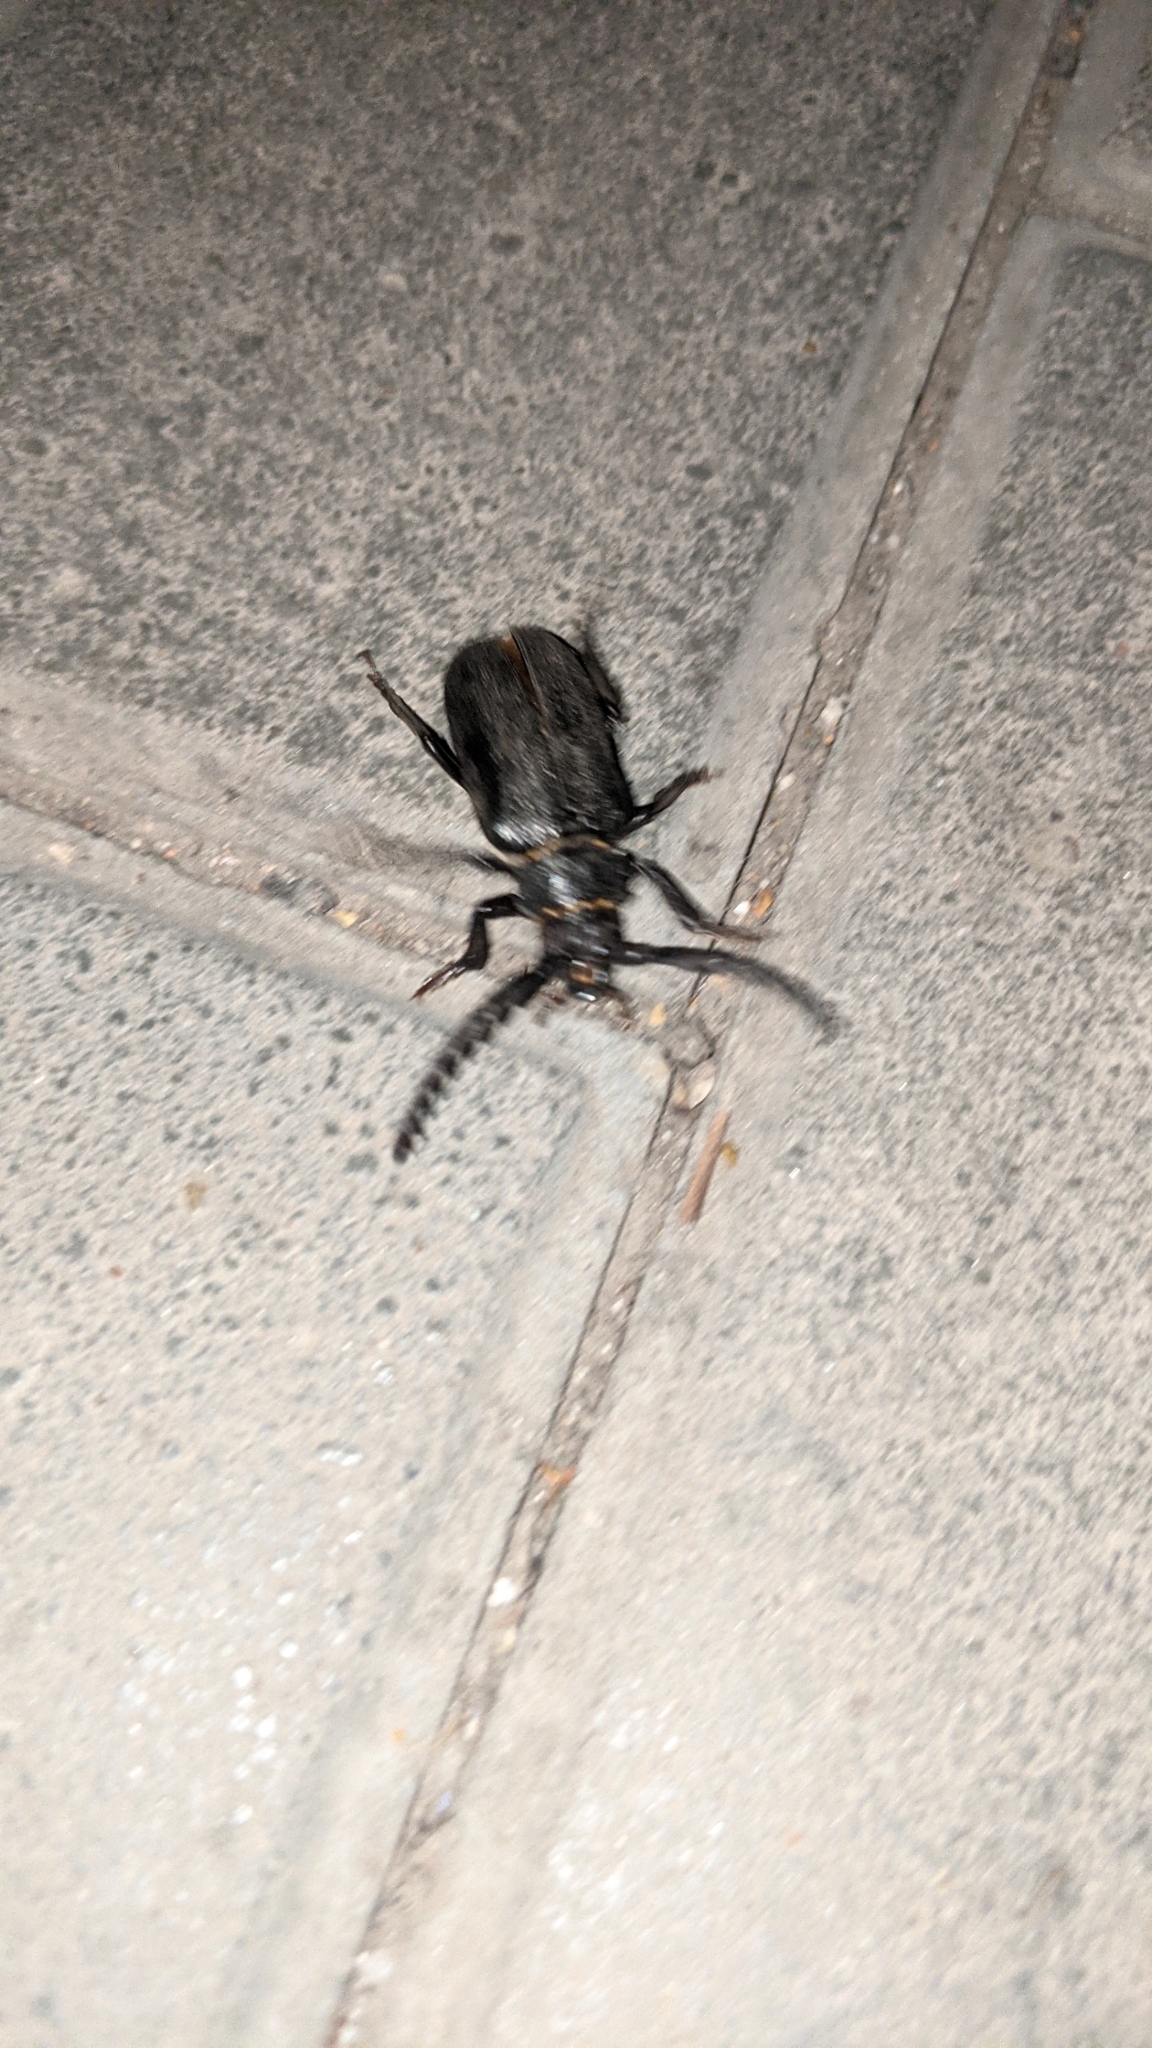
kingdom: Animalia
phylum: Arthropoda
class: Insecta
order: Coleoptera
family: Cerambycidae
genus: Prionus
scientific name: Prionus coriarius
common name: Tanner beetle
